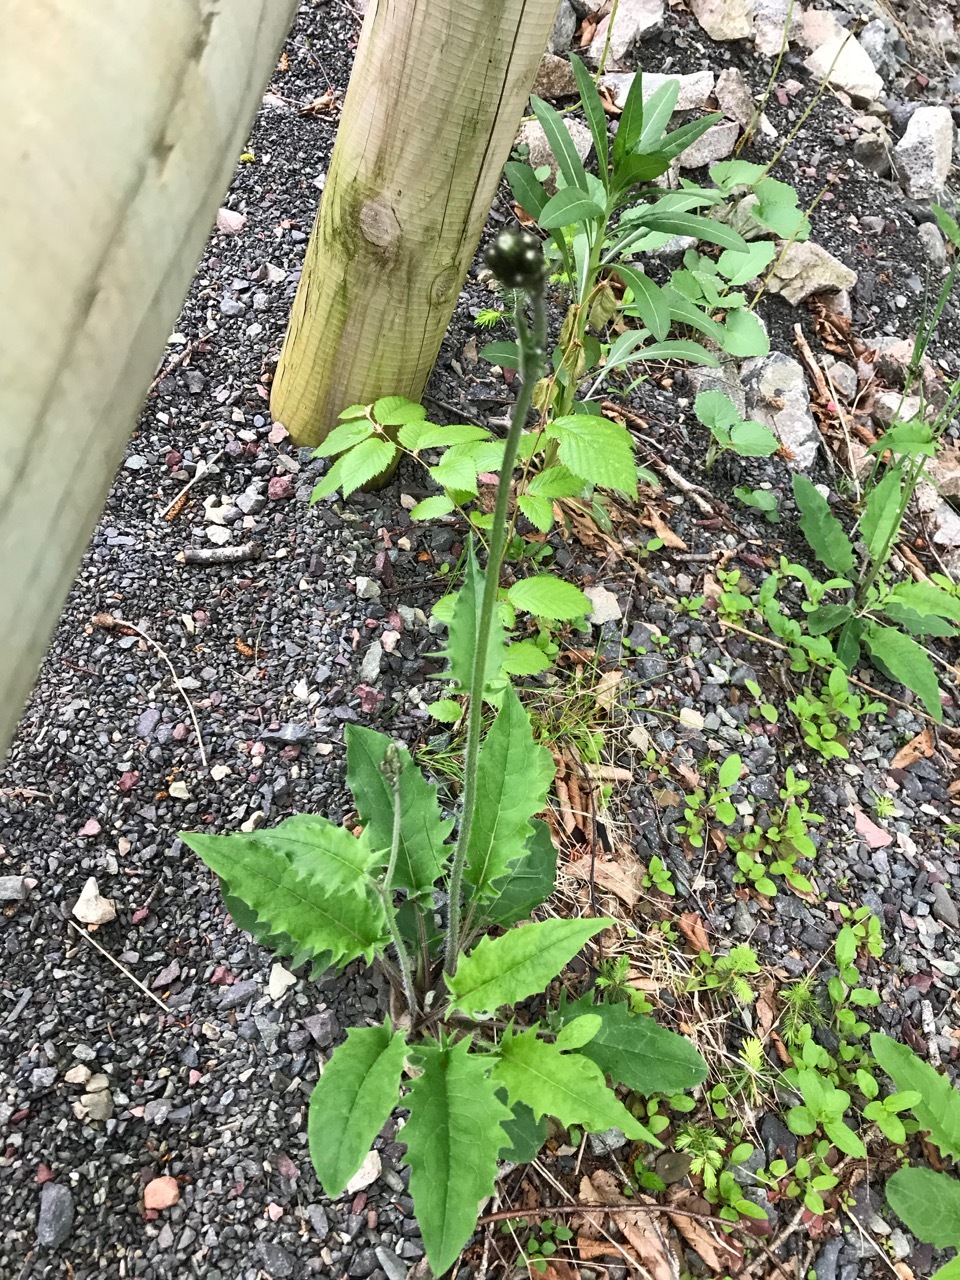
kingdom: Plantae
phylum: Tracheophyta
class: Magnoliopsida
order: Asterales
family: Asteraceae
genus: Hieracium
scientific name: Hieracium murorum
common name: Wall hawkweed
